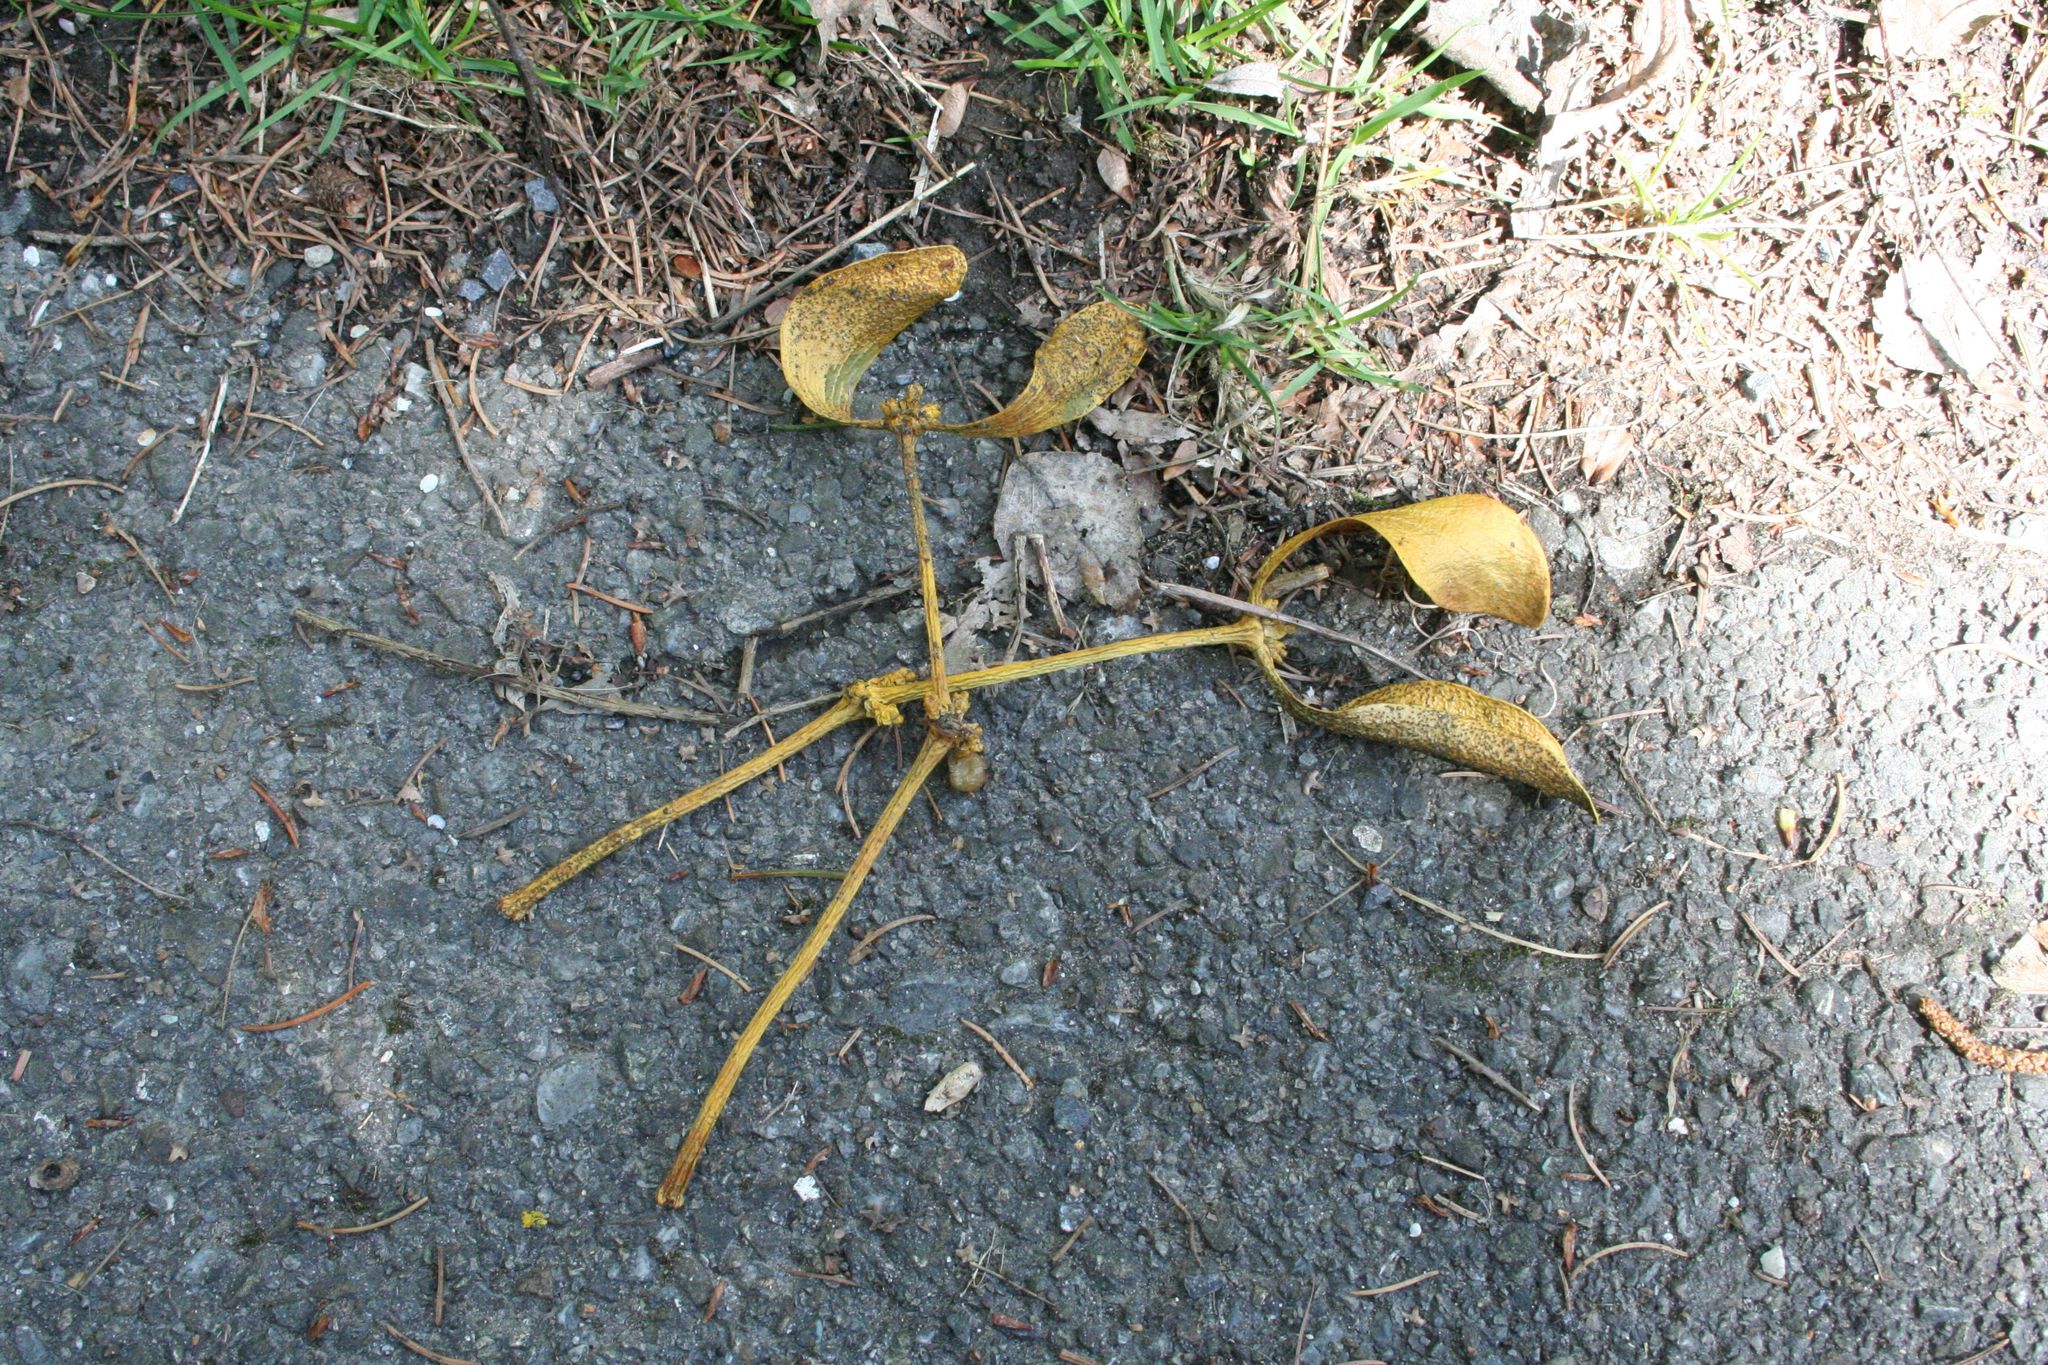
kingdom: Plantae
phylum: Tracheophyta
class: Magnoliopsida
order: Santalales
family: Viscaceae
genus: Viscum
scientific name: Viscum album
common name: Mistletoe
